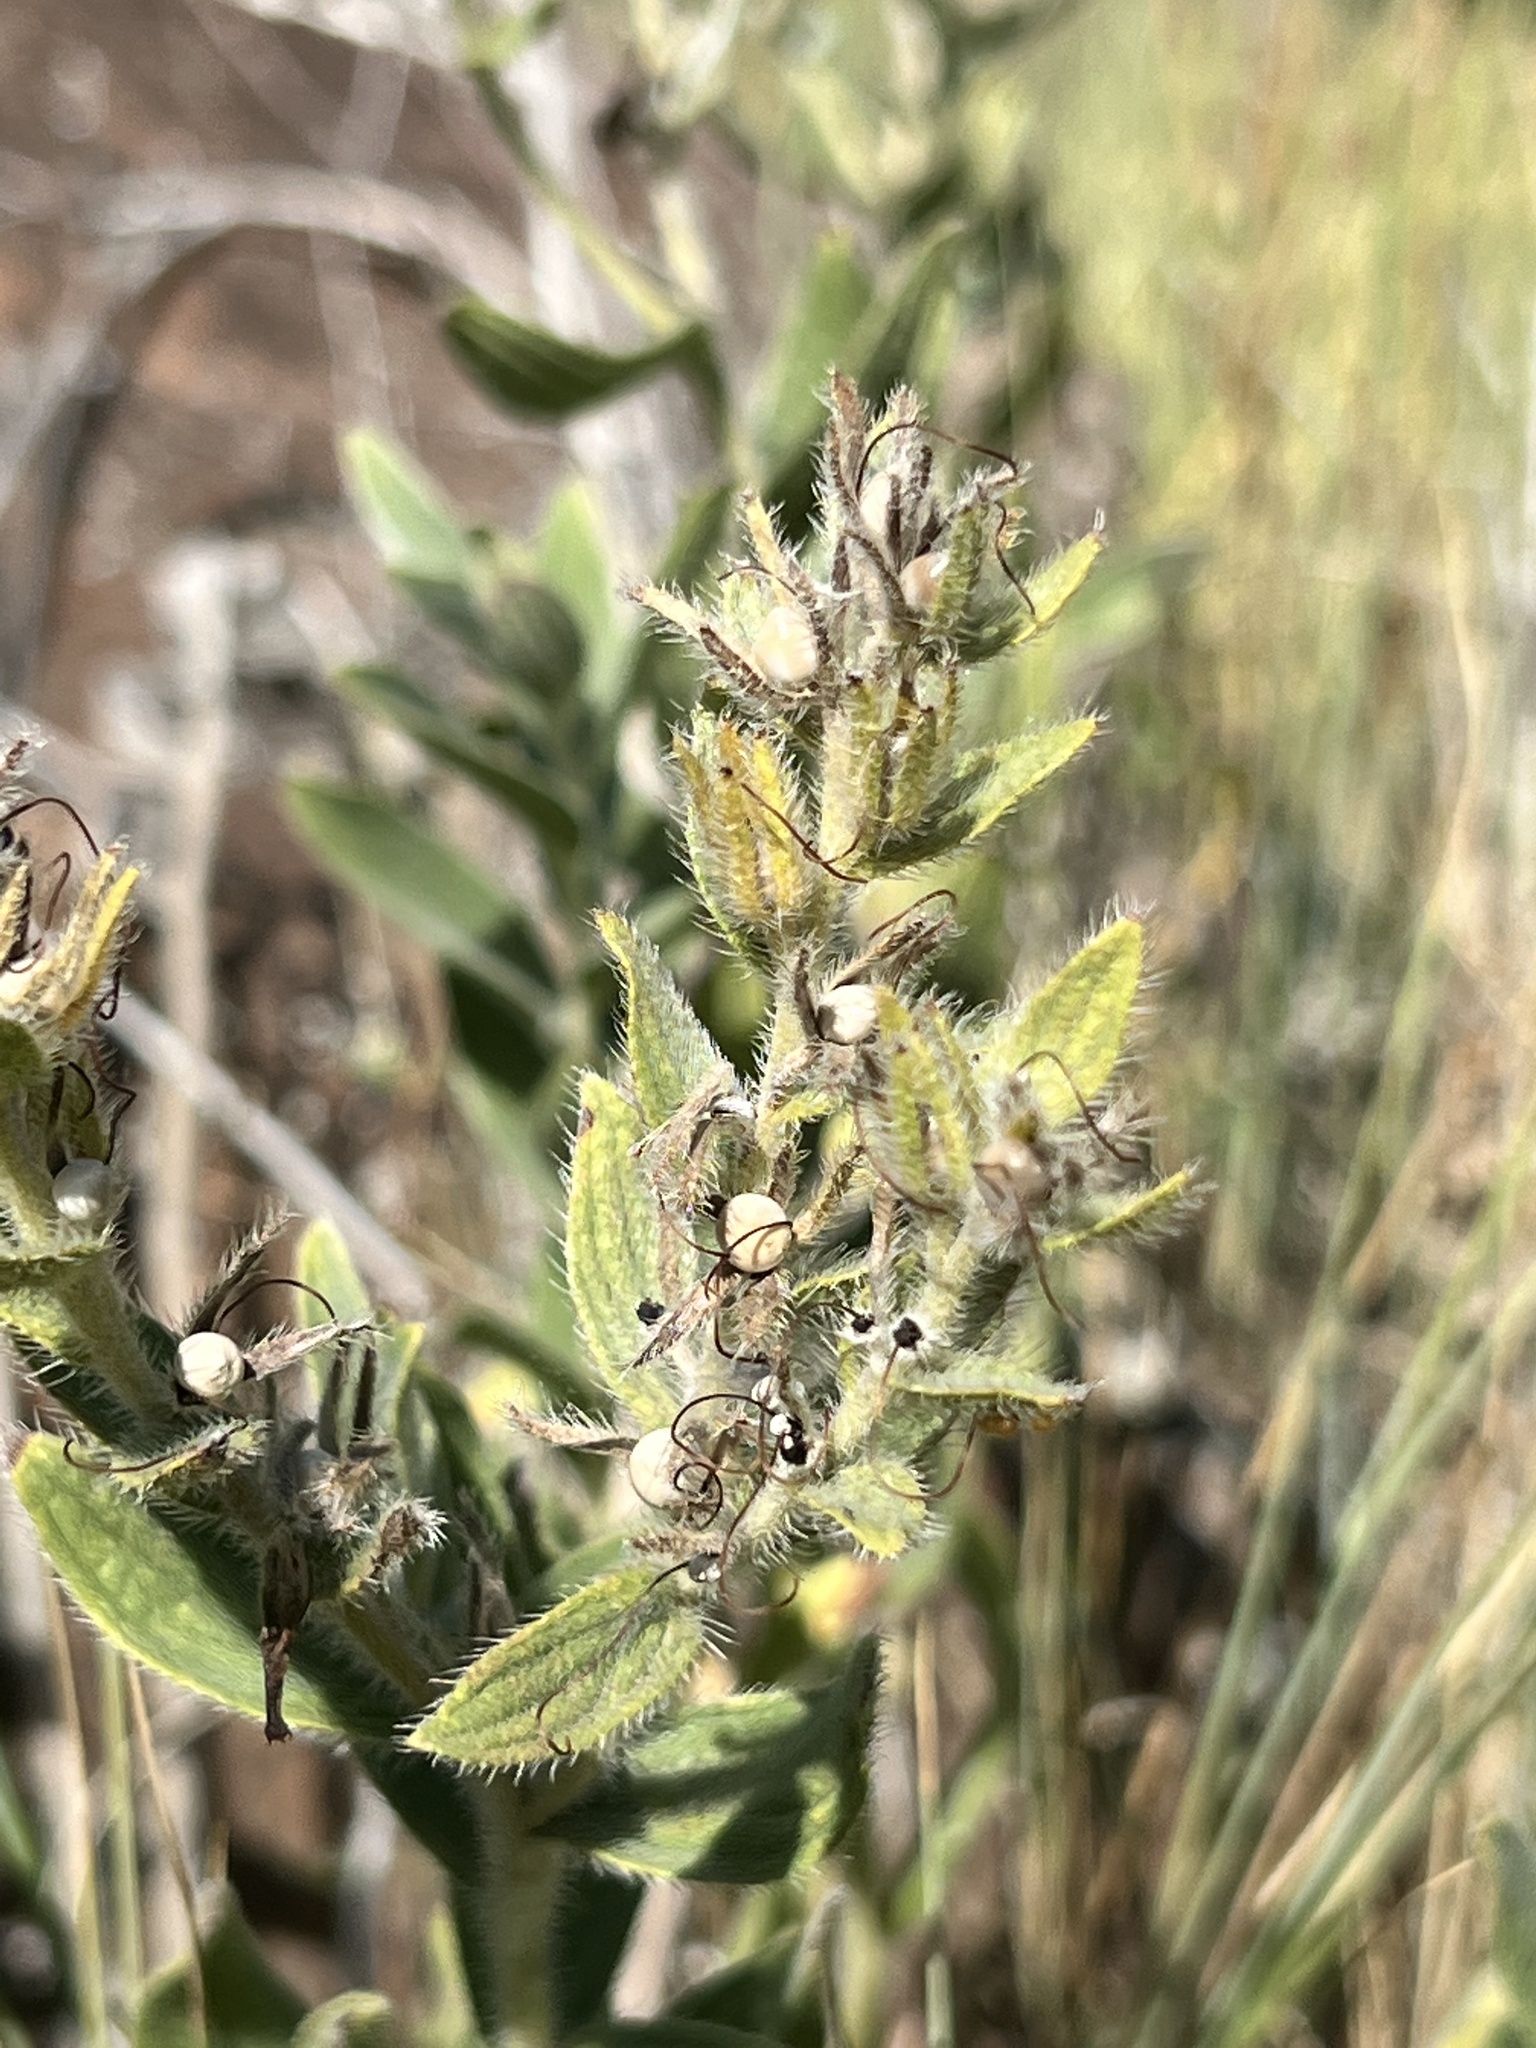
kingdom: Plantae
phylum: Tracheophyta
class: Magnoliopsida
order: Boraginales
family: Boraginaceae
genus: Lithospermum
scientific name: Lithospermum occidentale
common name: Western false gromwell
